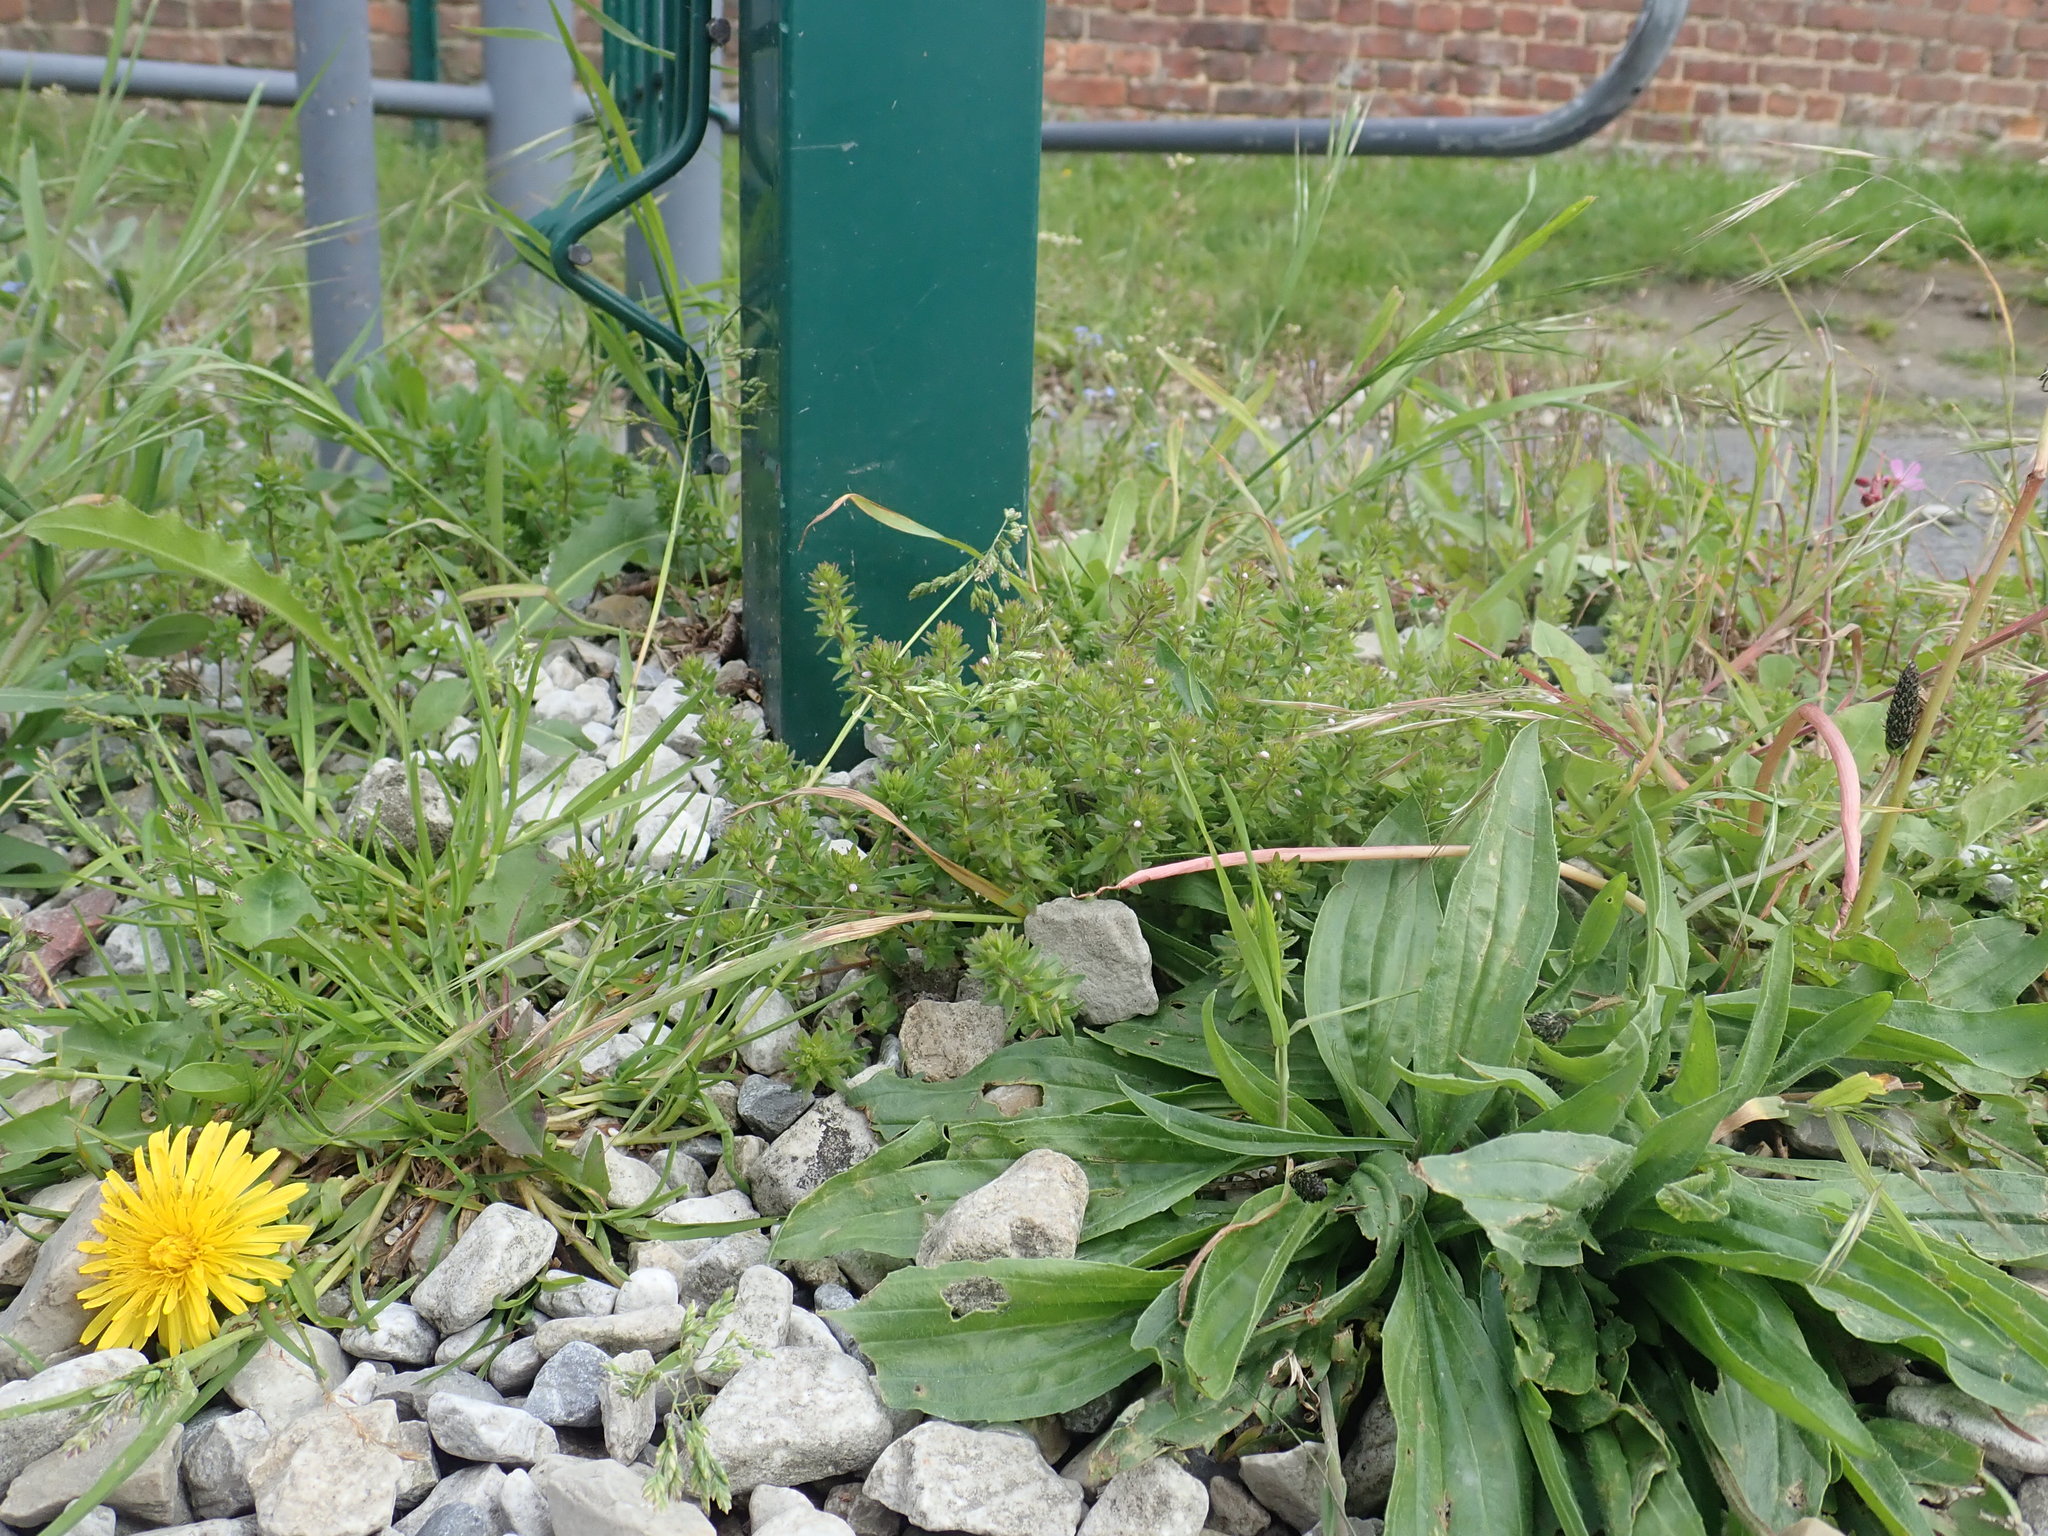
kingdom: Plantae
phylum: Tracheophyta
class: Magnoliopsida
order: Lamiales
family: Plantaginaceae
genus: Veronica
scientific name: Veronica arvensis
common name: Corn speedwell
